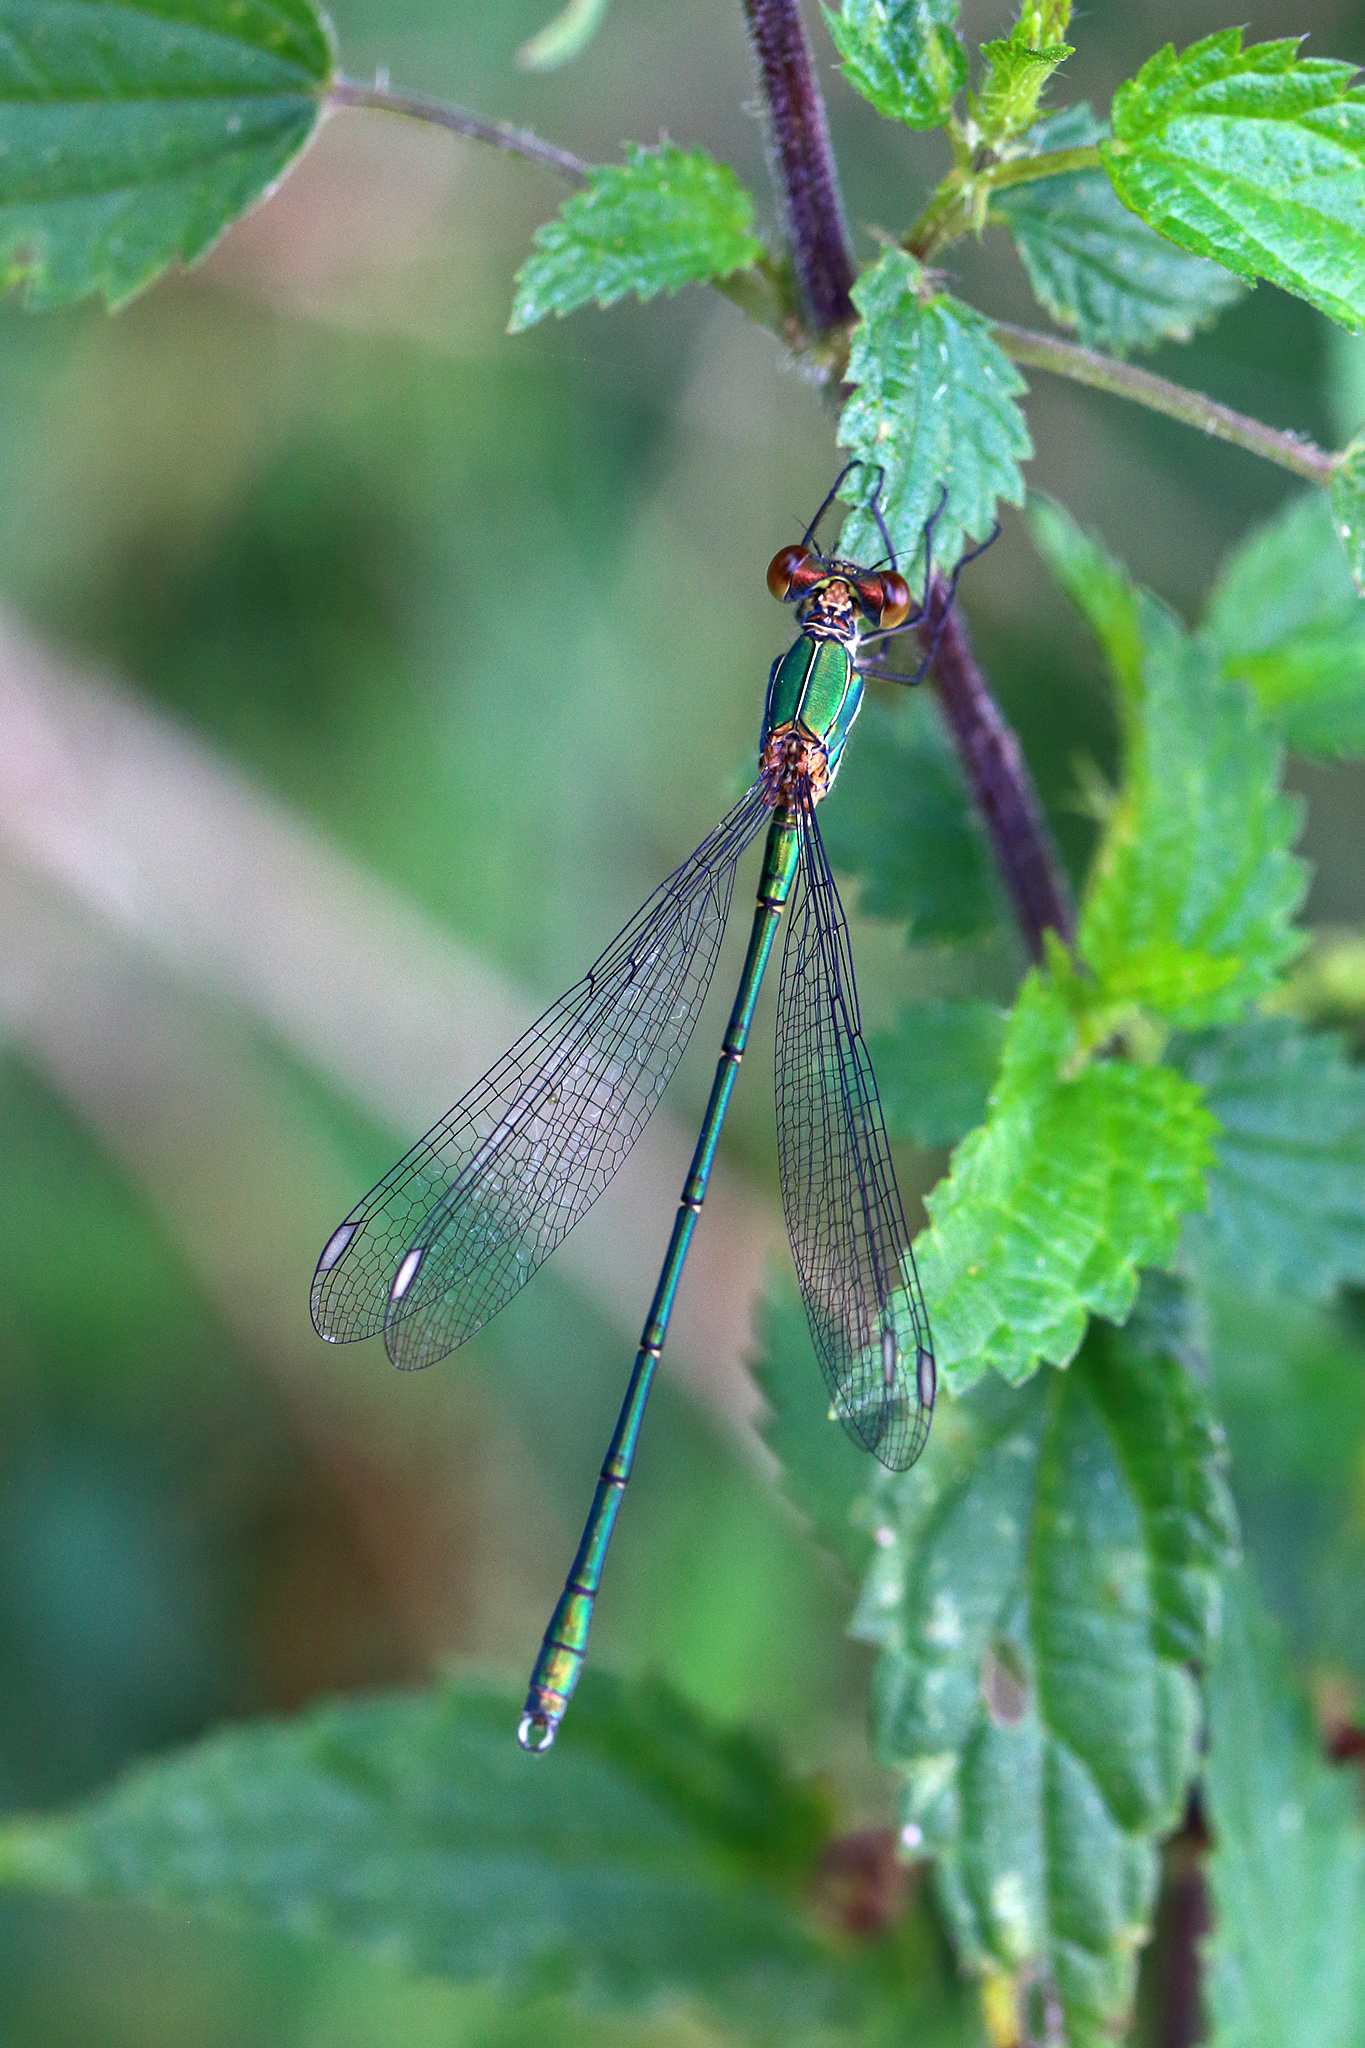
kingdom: Animalia
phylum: Arthropoda
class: Insecta
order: Odonata
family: Lestidae
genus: Chalcolestes
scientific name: Chalcolestes viridis
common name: Green emerald damselfly
